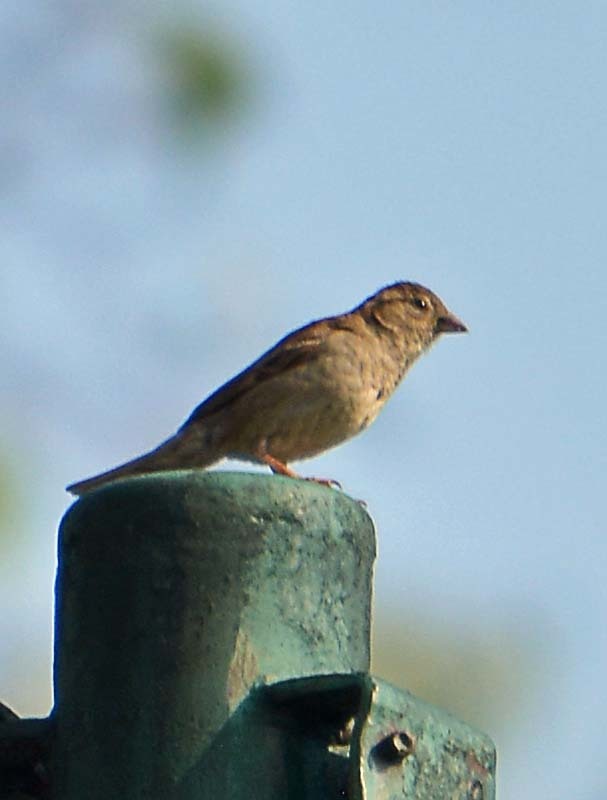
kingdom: Animalia
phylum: Chordata
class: Aves
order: Passeriformes
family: Passeridae
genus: Passer
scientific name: Passer domesticus
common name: House sparrow
